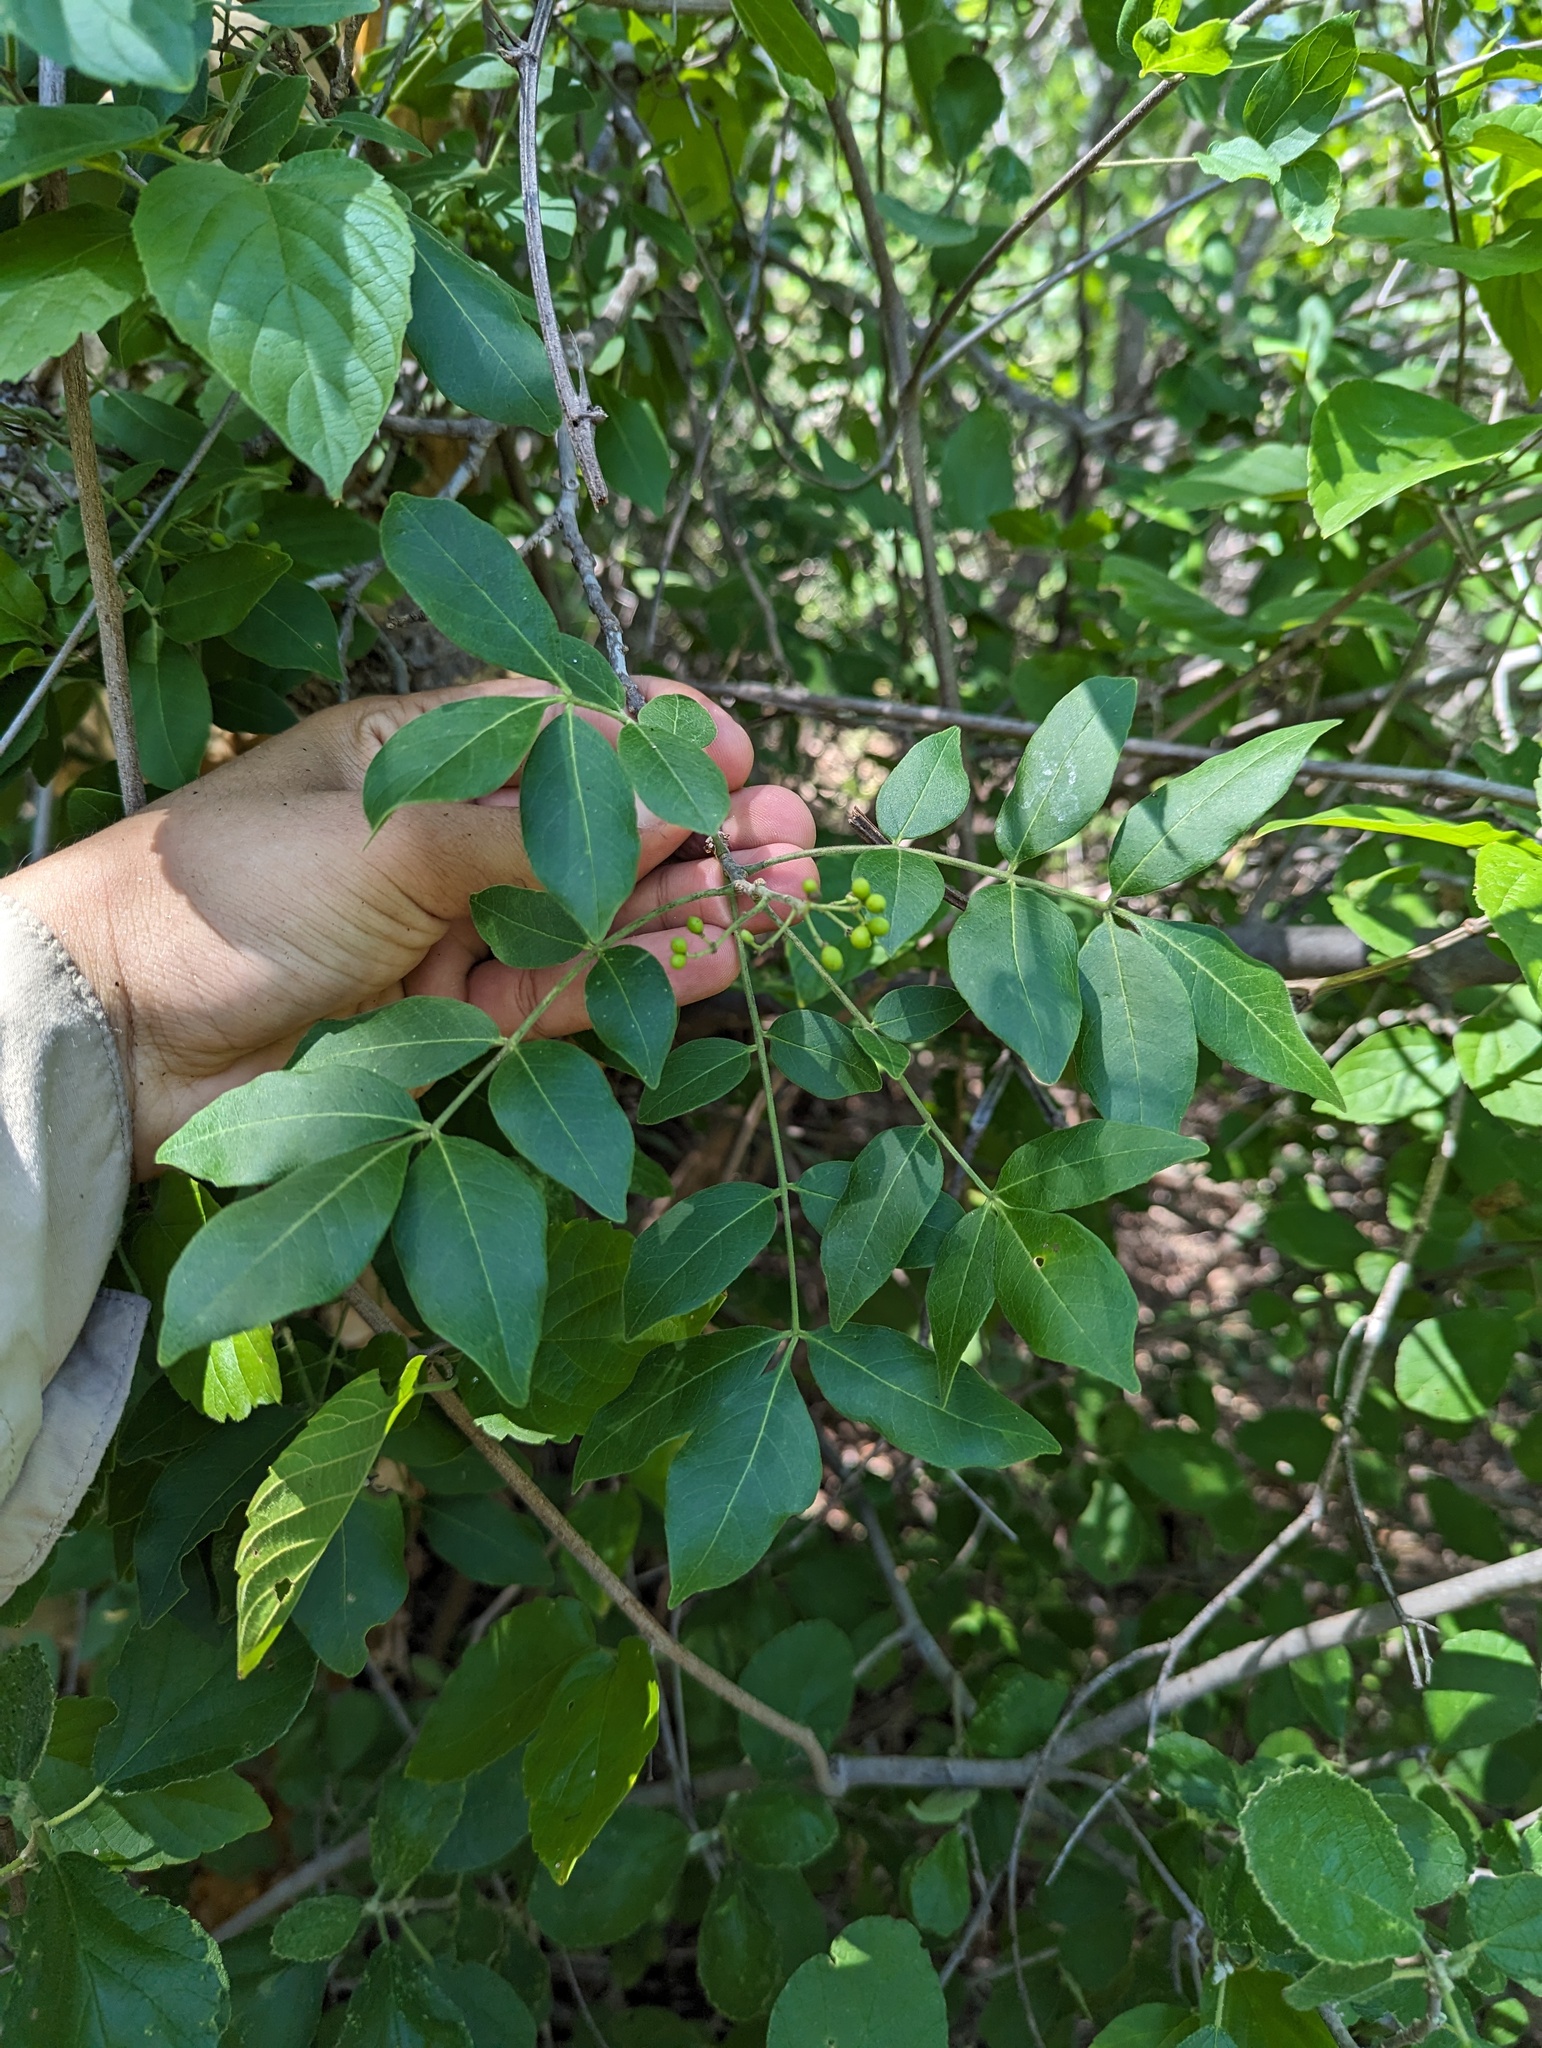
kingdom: Plantae
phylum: Tracheophyta
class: Magnoliopsida
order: Sapindales
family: Rutaceae
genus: Zanthoxylum
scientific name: Zanthoxylum arborescens
